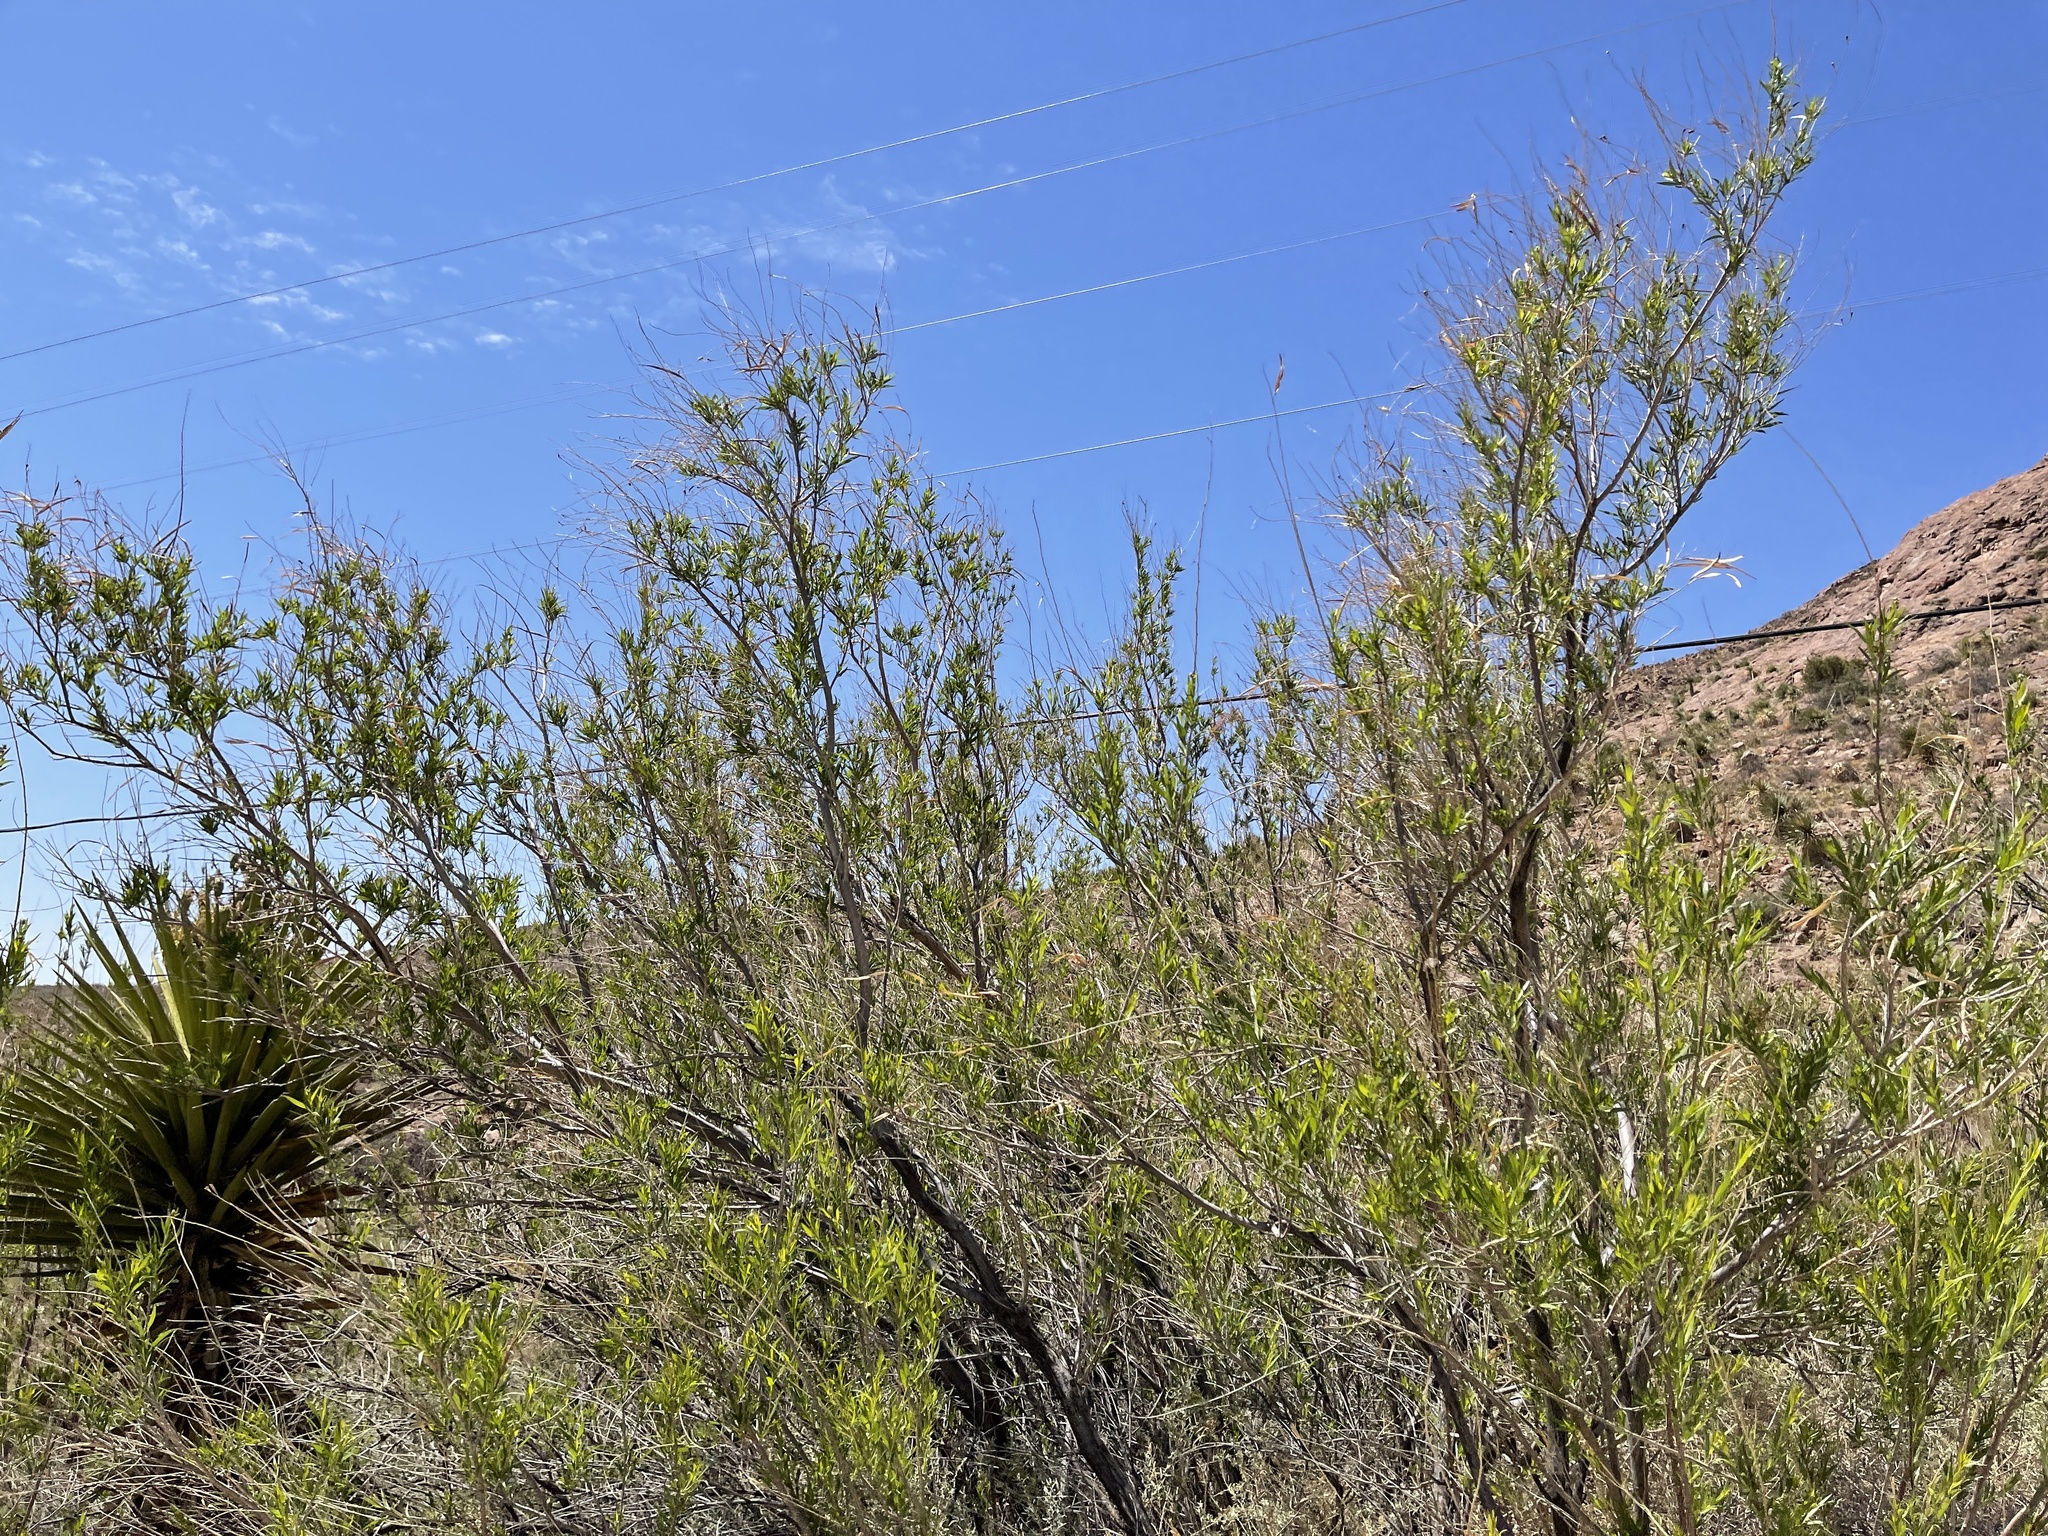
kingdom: Plantae
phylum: Tracheophyta
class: Magnoliopsida
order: Lamiales
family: Bignoniaceae
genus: Chilopsis
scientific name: Chilopsis linearis
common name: Desert-willow
